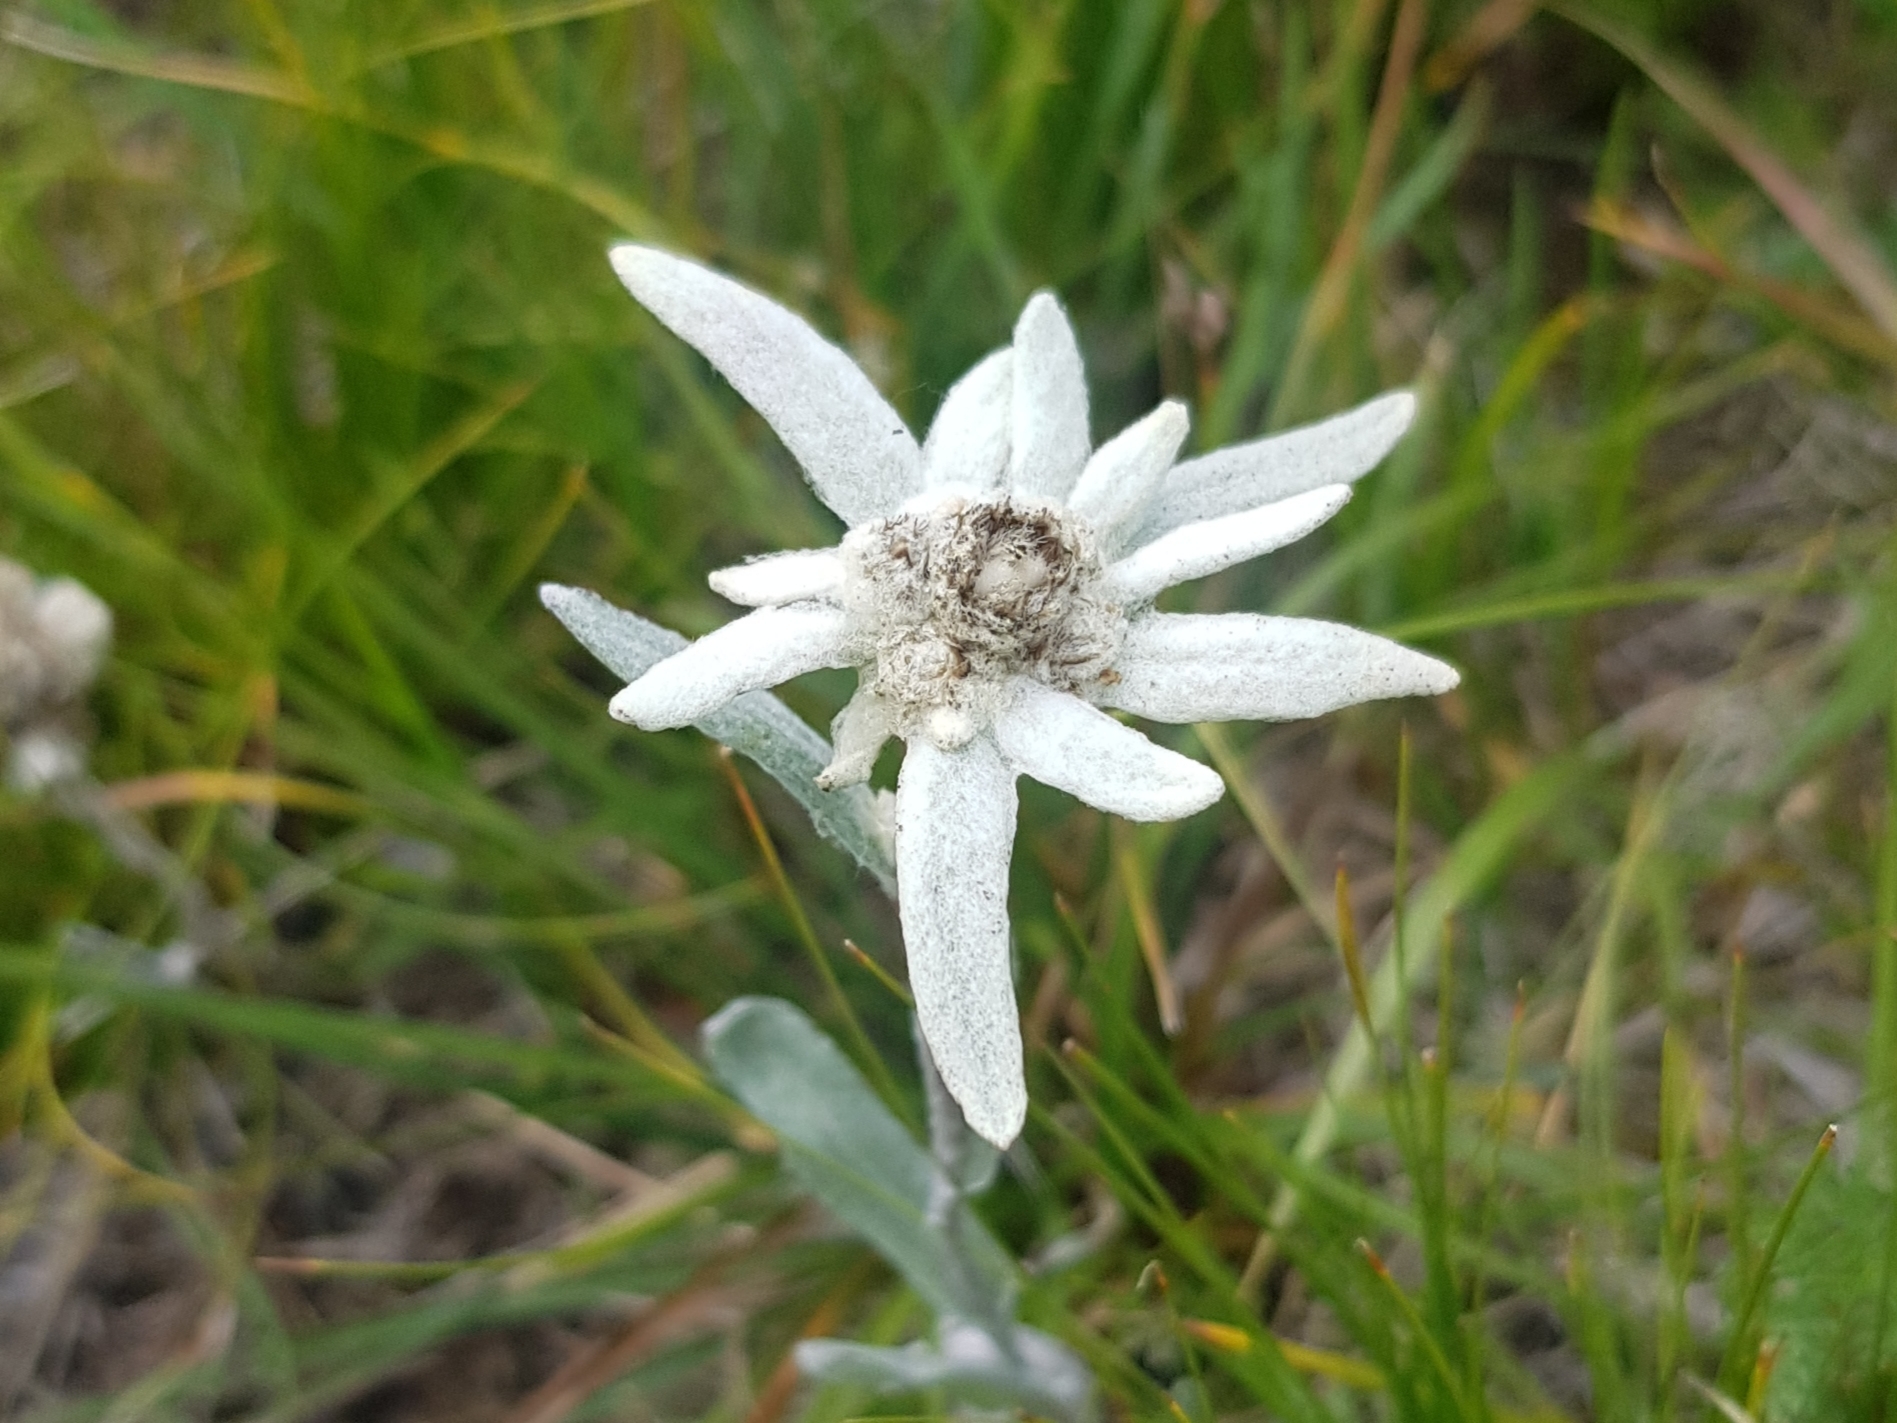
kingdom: Plantae
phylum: Tracheophyta
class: Magnoliopsida
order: Asterales
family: Asteraceae
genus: Leontopodium
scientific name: Leontopodium leontopodioides
